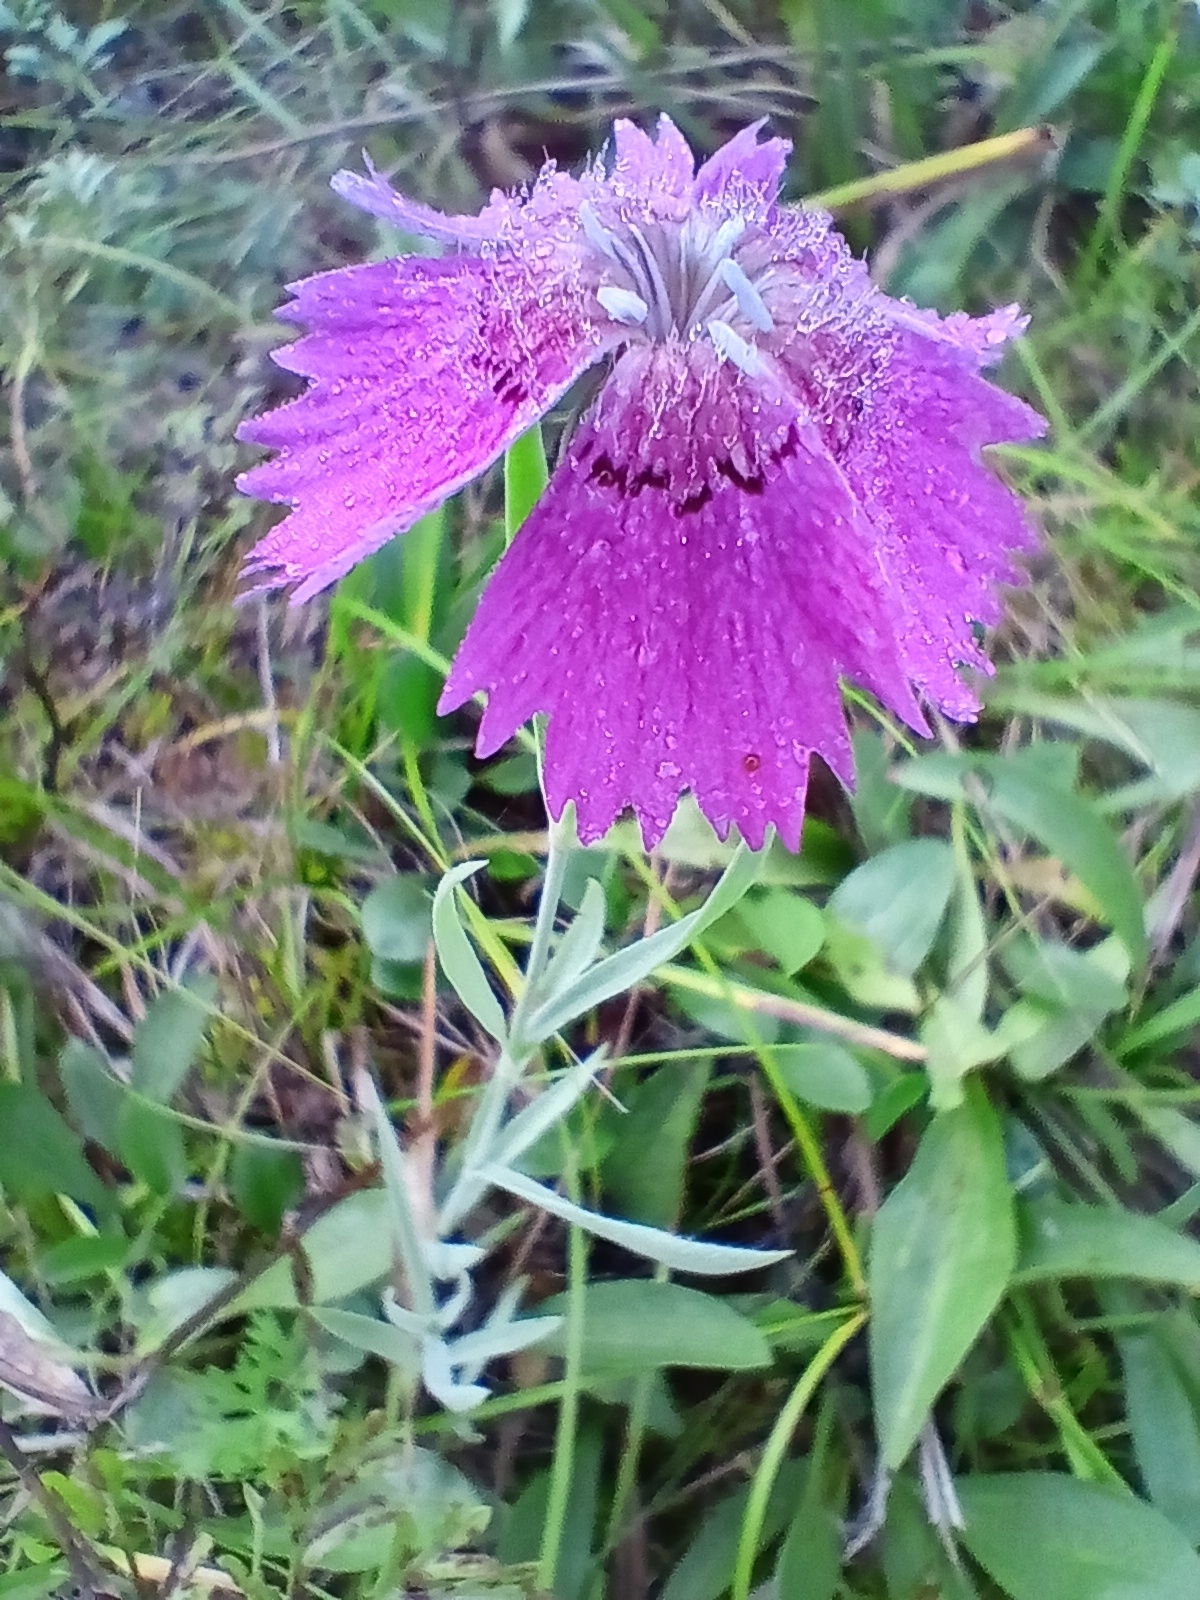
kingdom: Plantae
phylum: Tracheophyta
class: Magnoliopsida
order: Caryophyllales
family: Caryophyllaceae
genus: Dianthus
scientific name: Dianthus chinensis
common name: Rainbow pink
